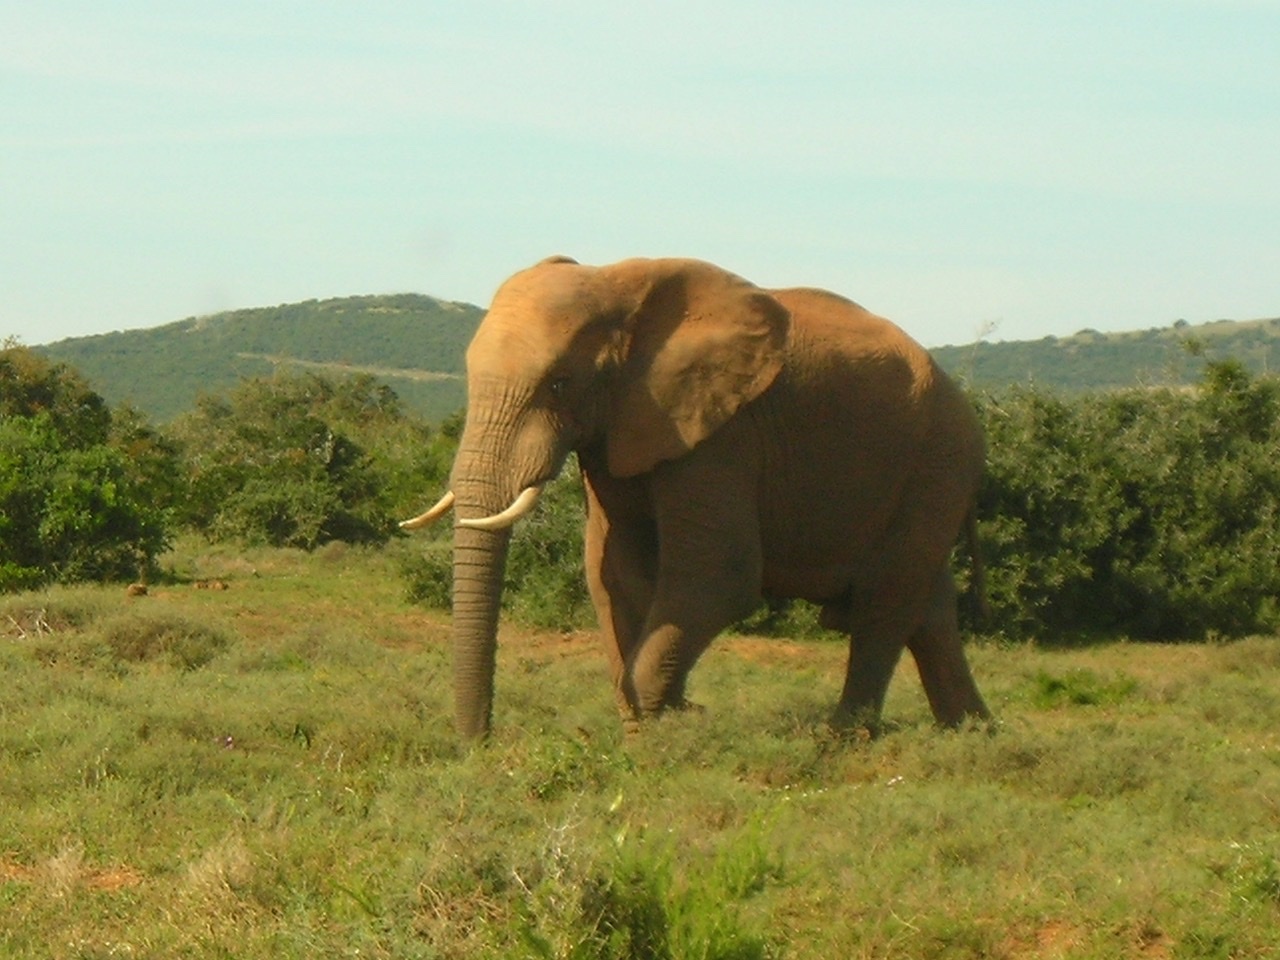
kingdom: Animalia
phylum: Chordata
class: Mammalia
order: Proboscidea
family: Elephantidae
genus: Loxodonta
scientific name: Loxodonta africana
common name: African elephant
